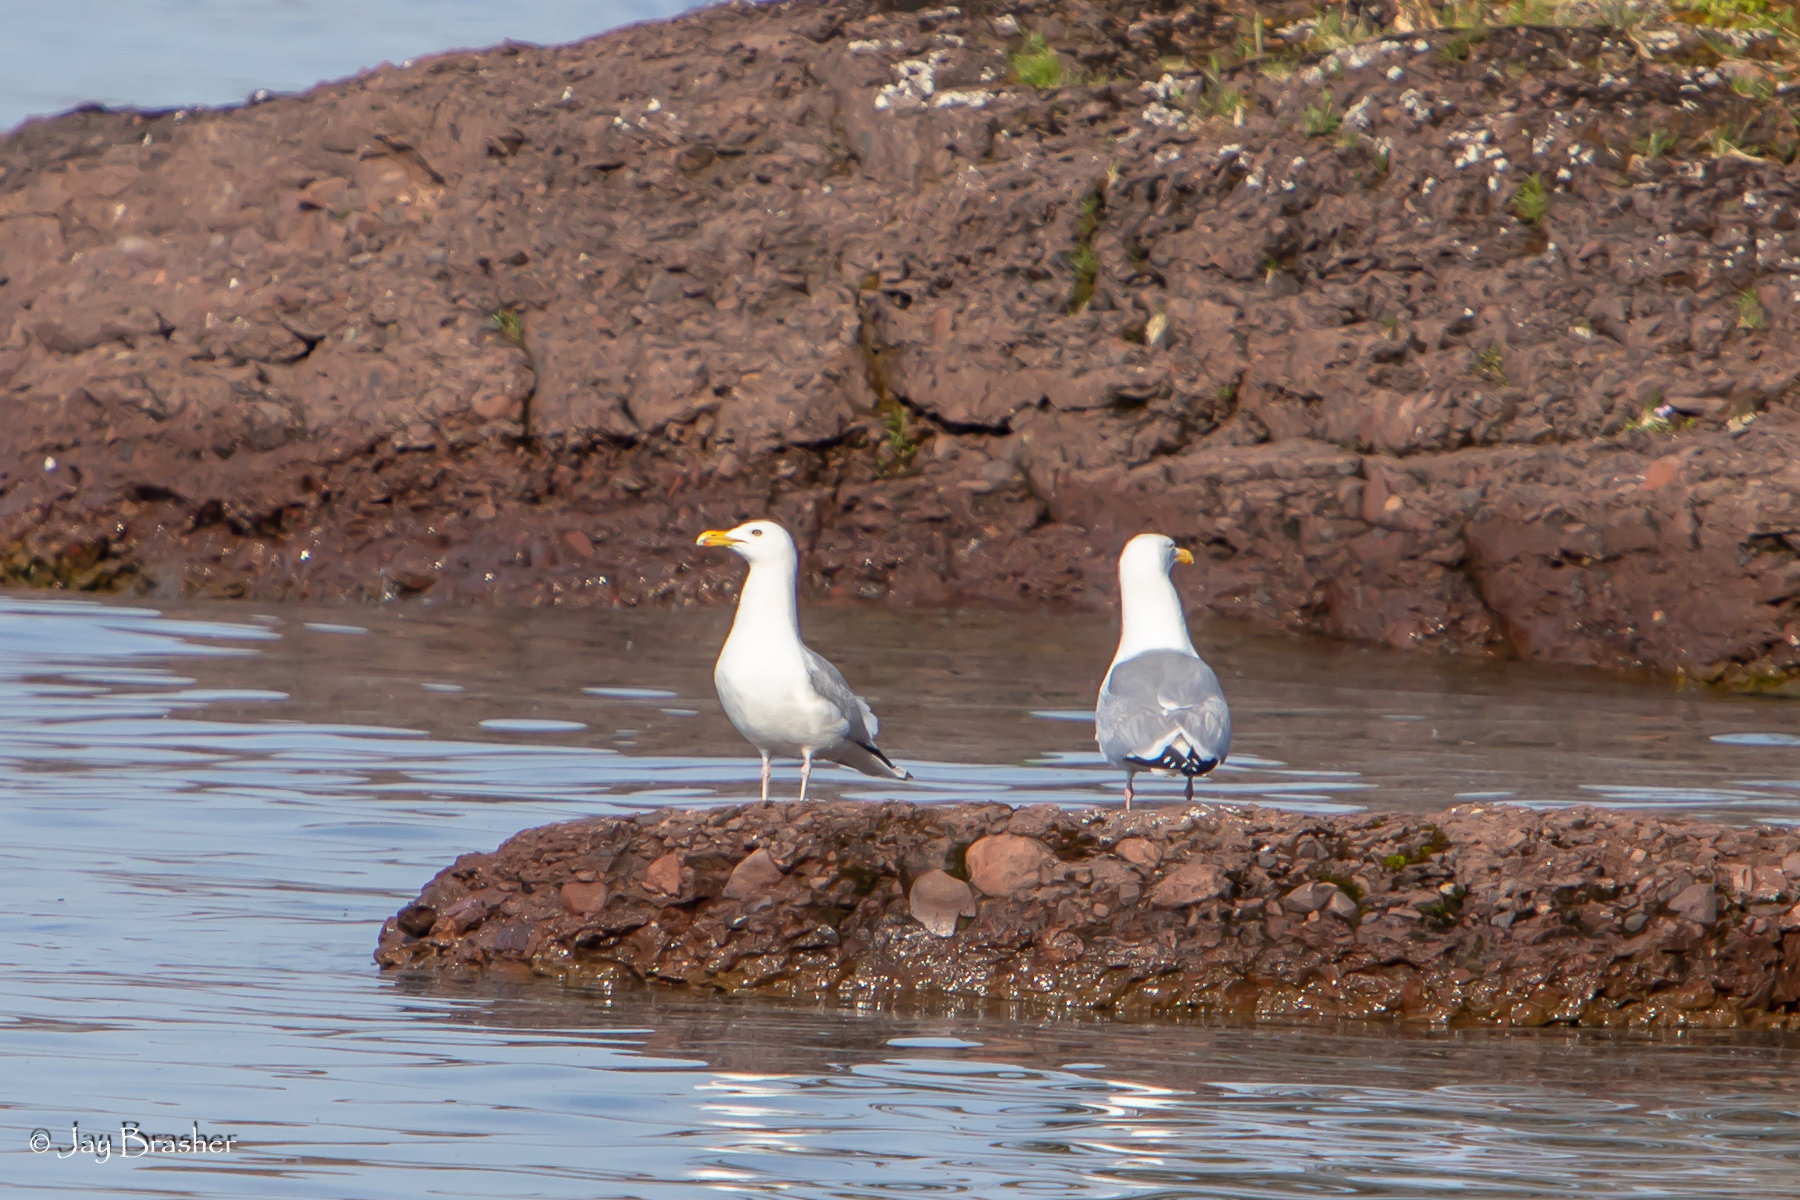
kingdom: Animalia
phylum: Chordata
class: Aves
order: Charadriiformes
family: Laridae
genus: Larus
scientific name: Larus argentatus
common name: Herring gull
